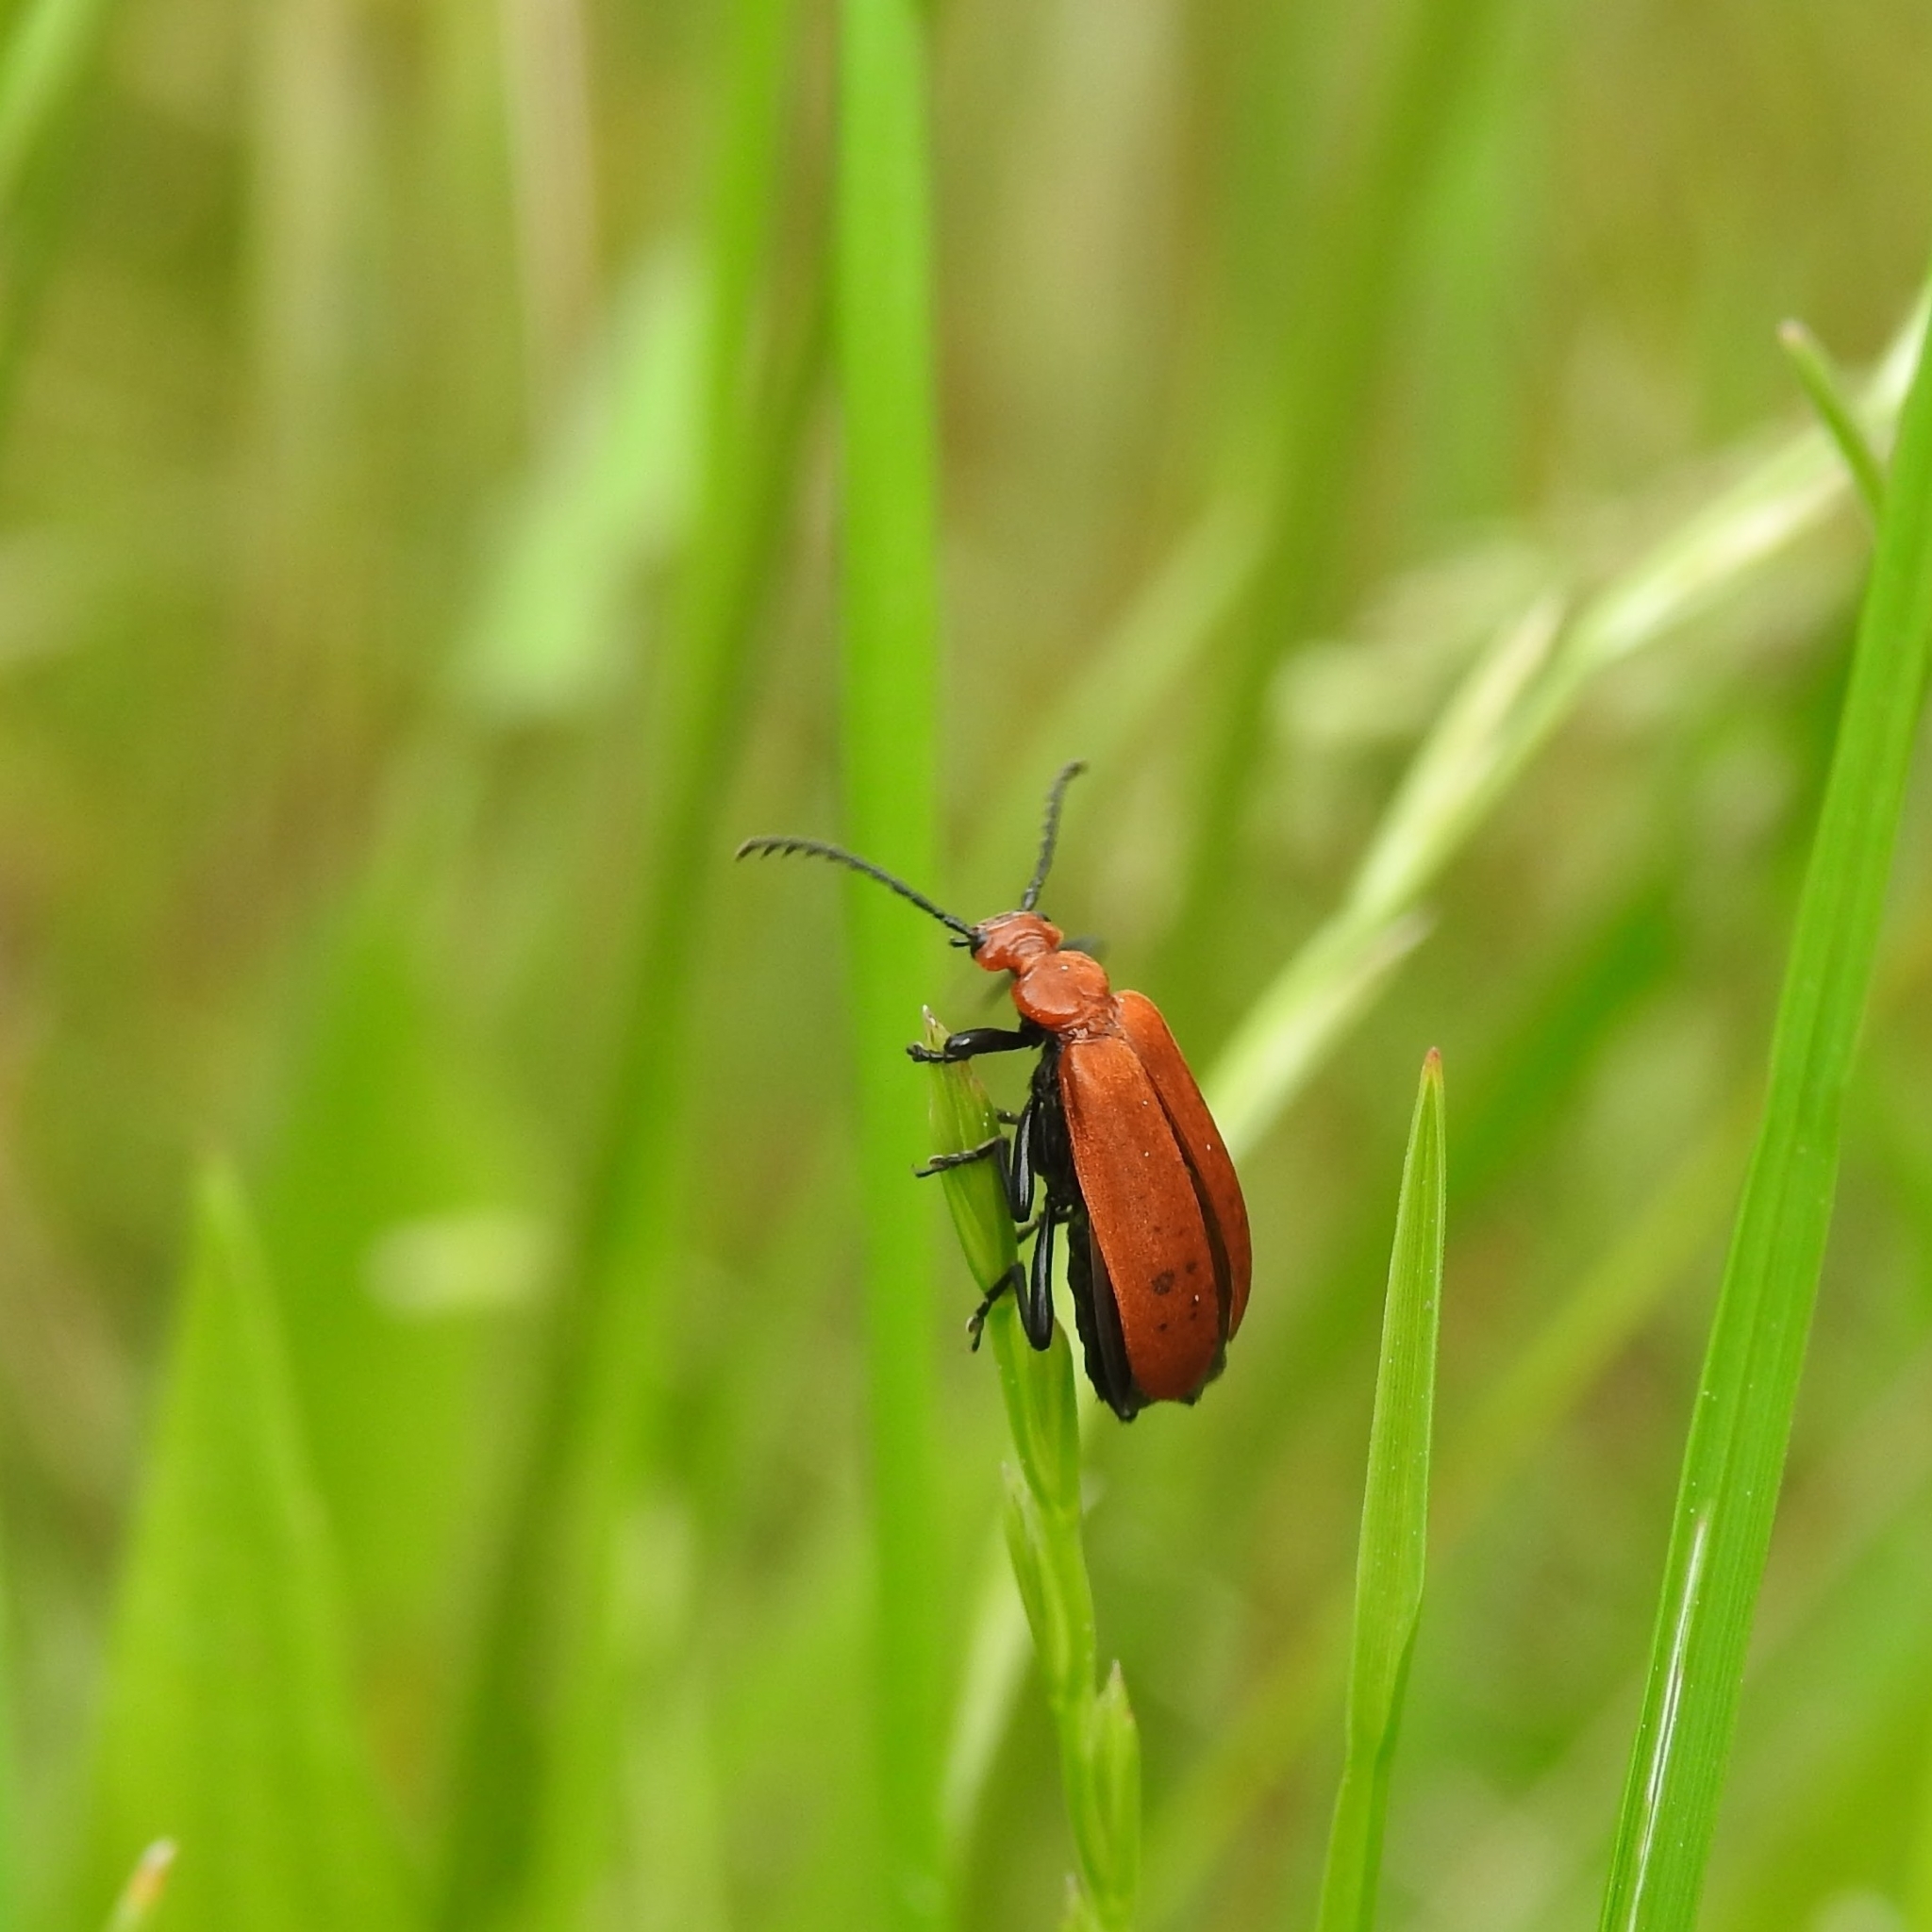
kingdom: Animalia
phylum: Arthropoda
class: Insecta
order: Coleoptera
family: Pyrochroidae
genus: Pyrochroa
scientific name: Pyrochroa serraticornis
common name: Red-headed cardinal beetle
